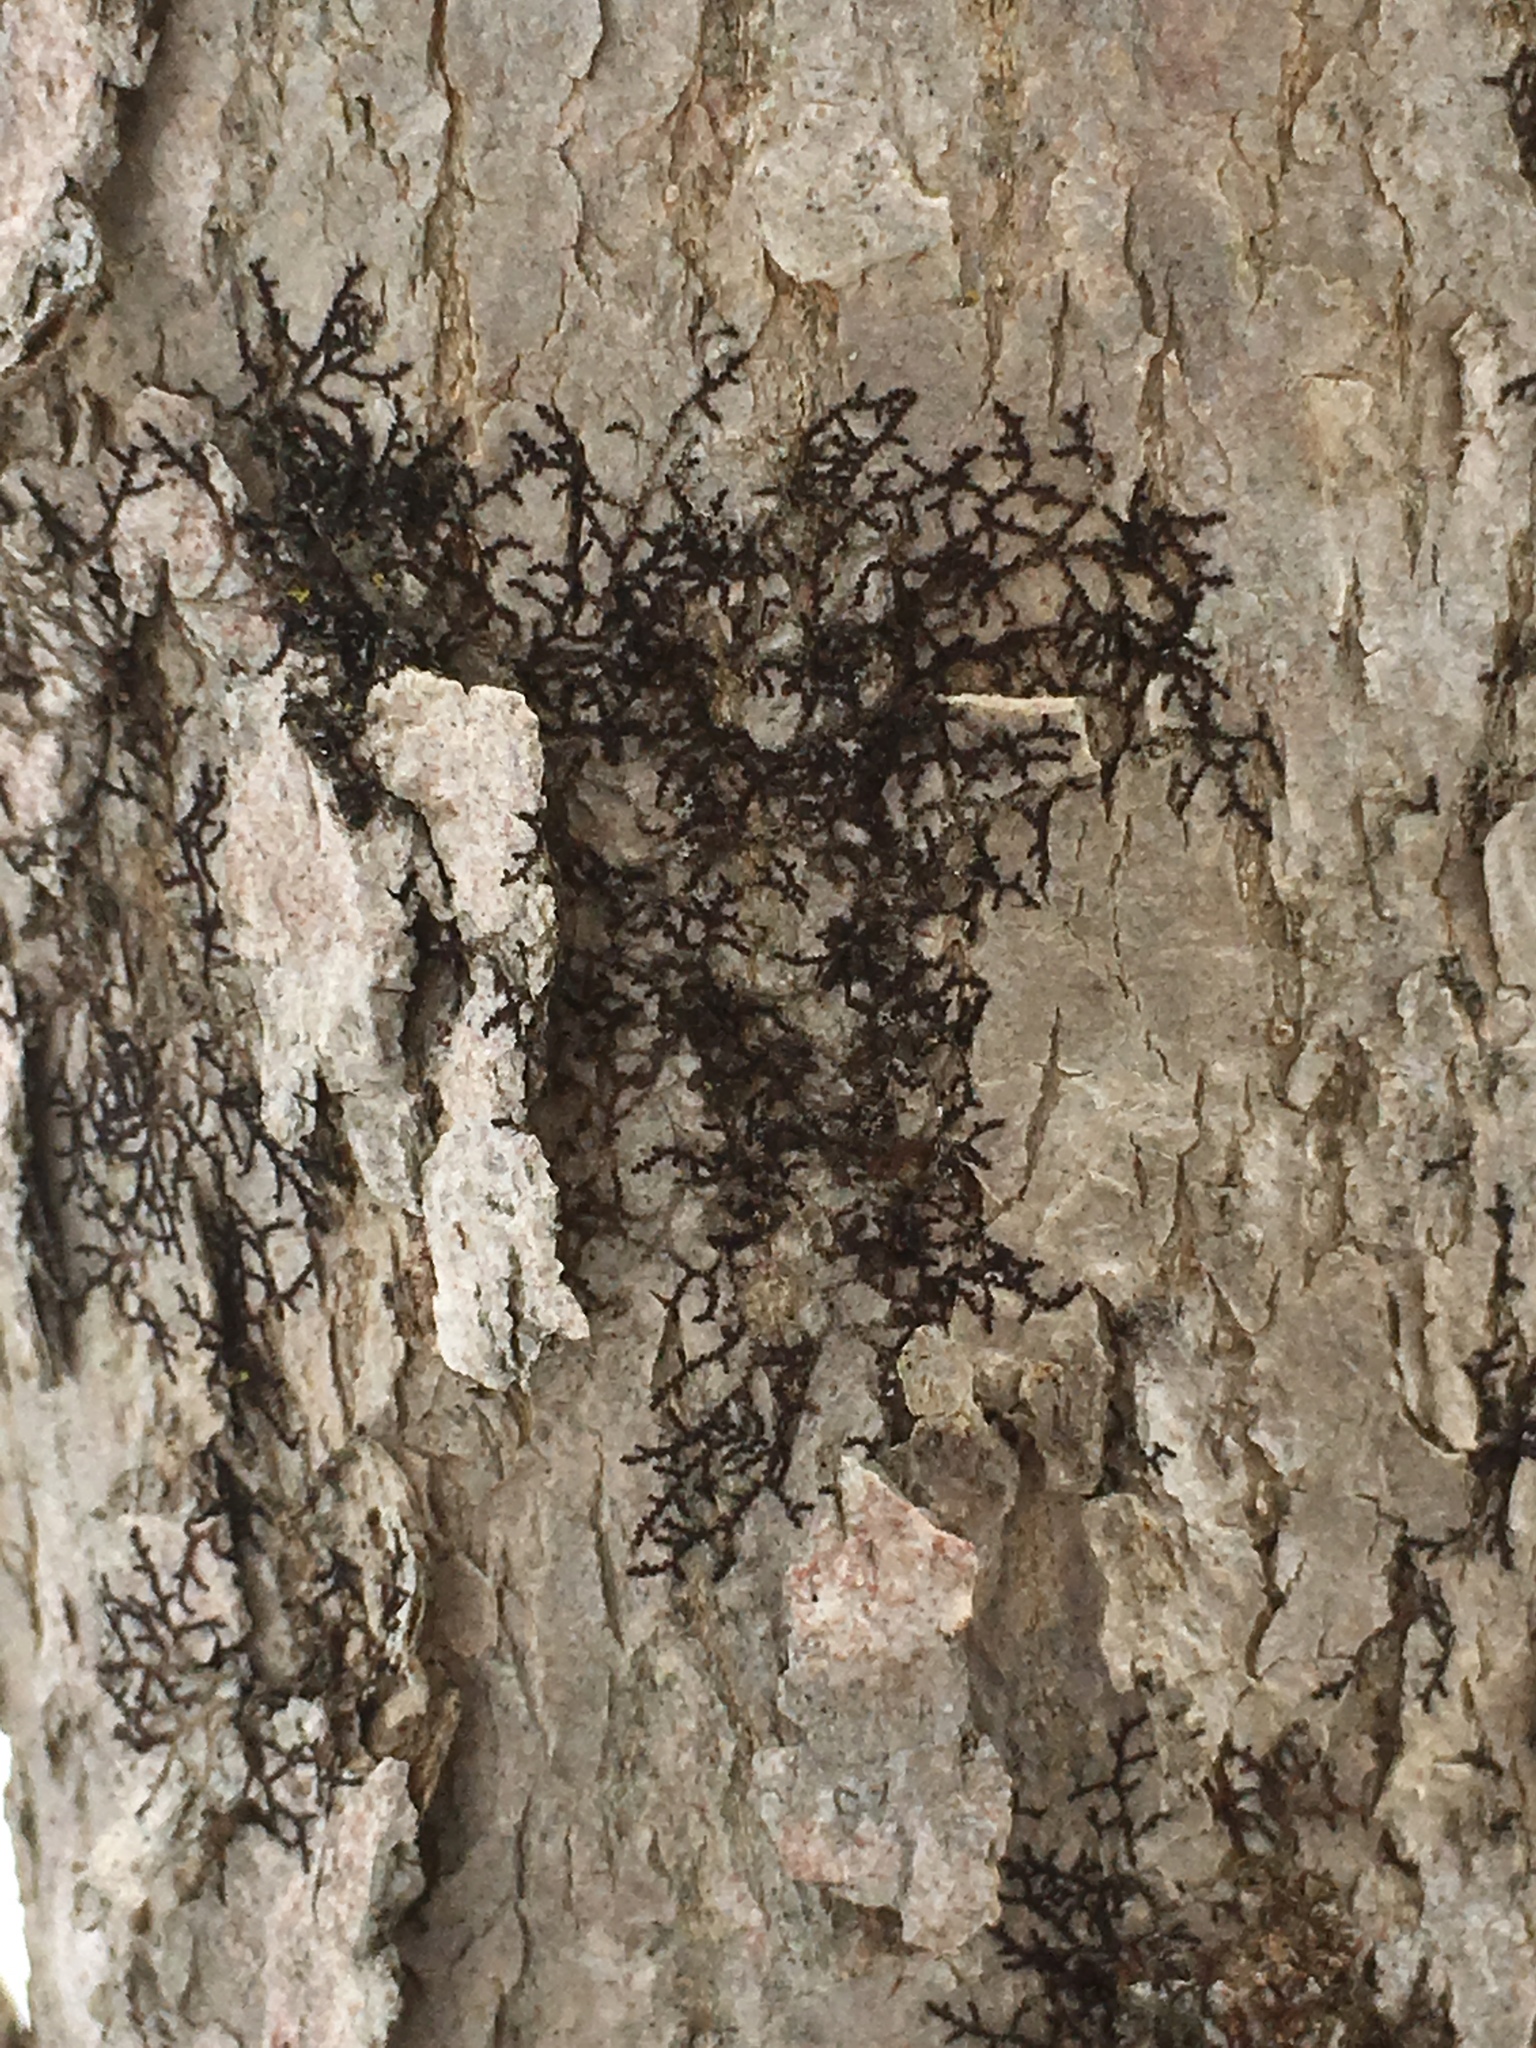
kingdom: Plantae
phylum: Marchantiophyta
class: Jungermanniopsida
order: Porellales
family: Frullaniaceae
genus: Frullania
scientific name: Frullania eboracensis
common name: New york scalewort
